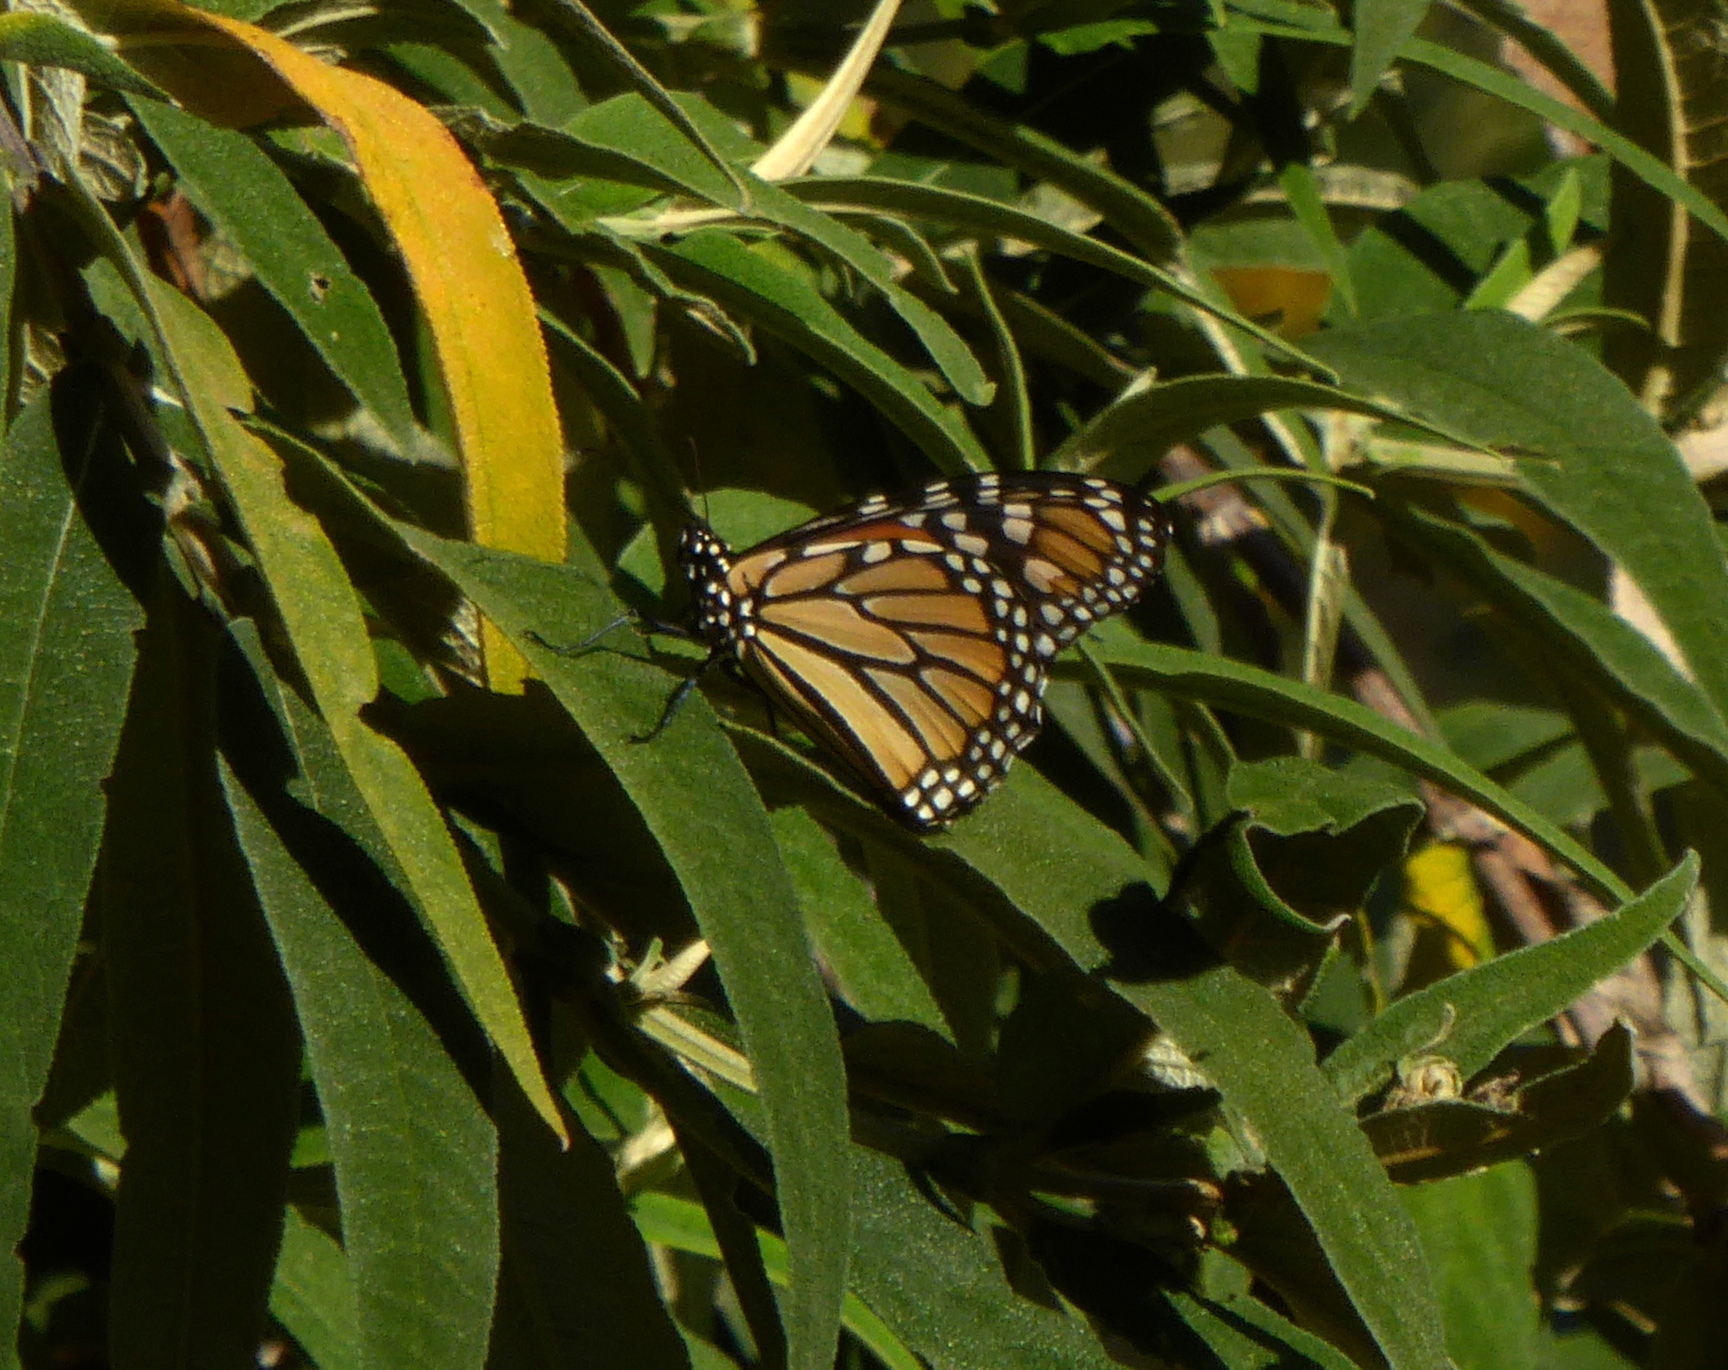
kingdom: Animalia
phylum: Arthropoda
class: Insecta
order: Lepidoptera
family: Nymphalidae
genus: Danaus
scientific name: Danaus plexippus
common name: Monarch
